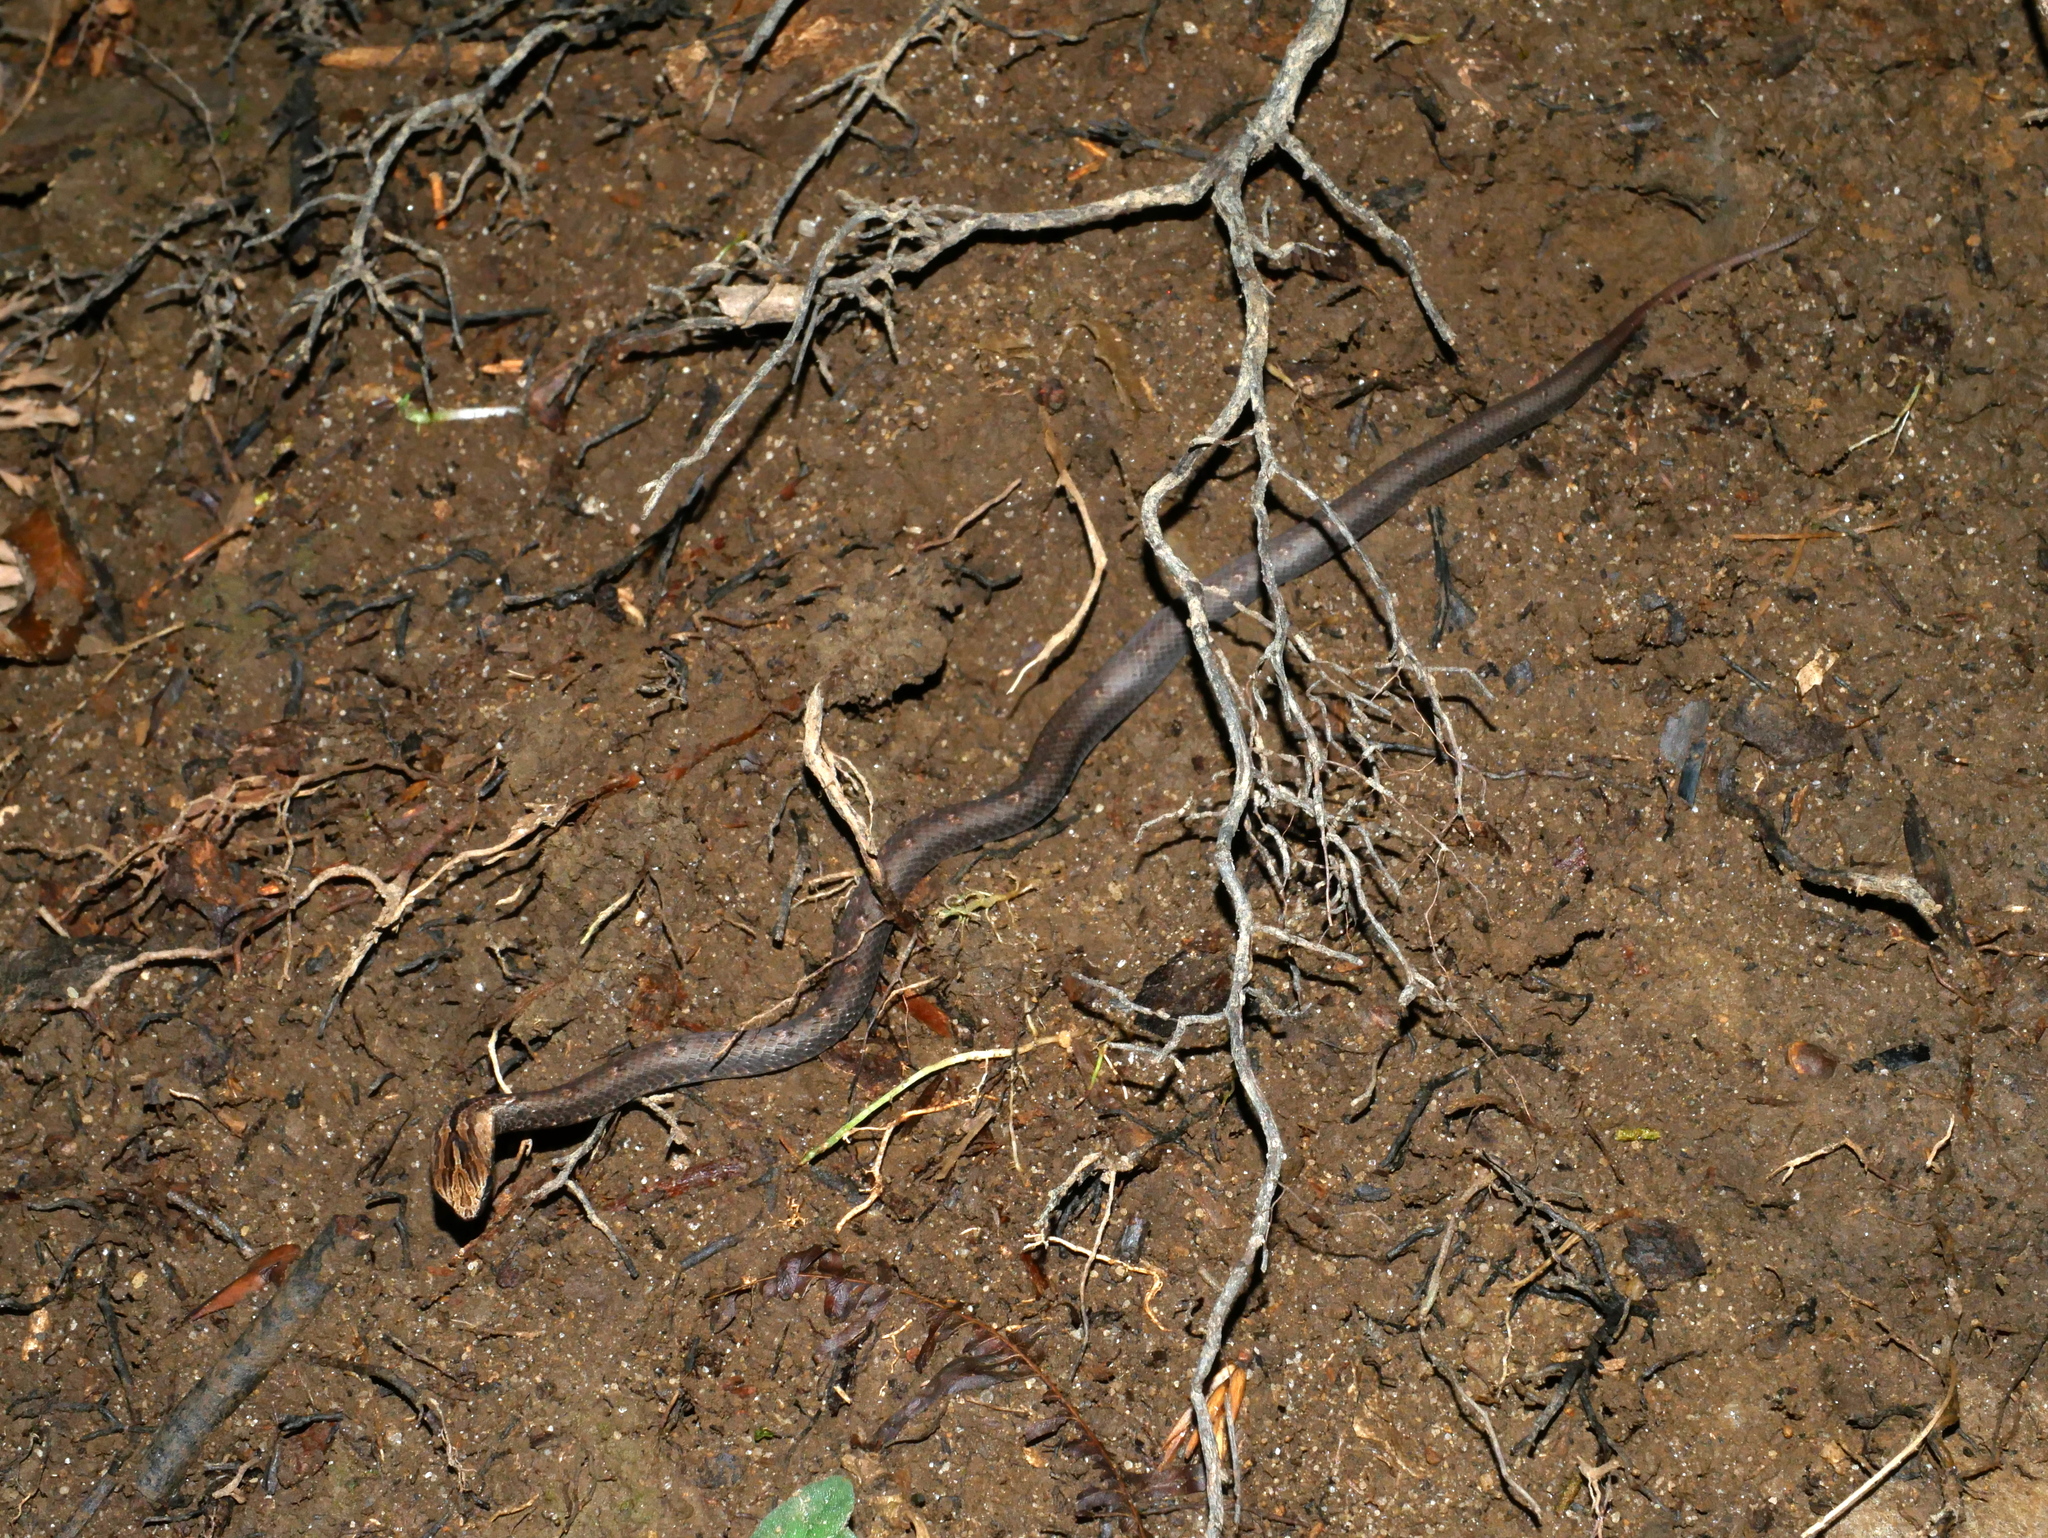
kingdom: Animalia
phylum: Chordata
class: Squamata
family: Pseudaspididae
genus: Psammodynastes
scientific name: Psammodynastes pulverulentus
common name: Common mock viper
